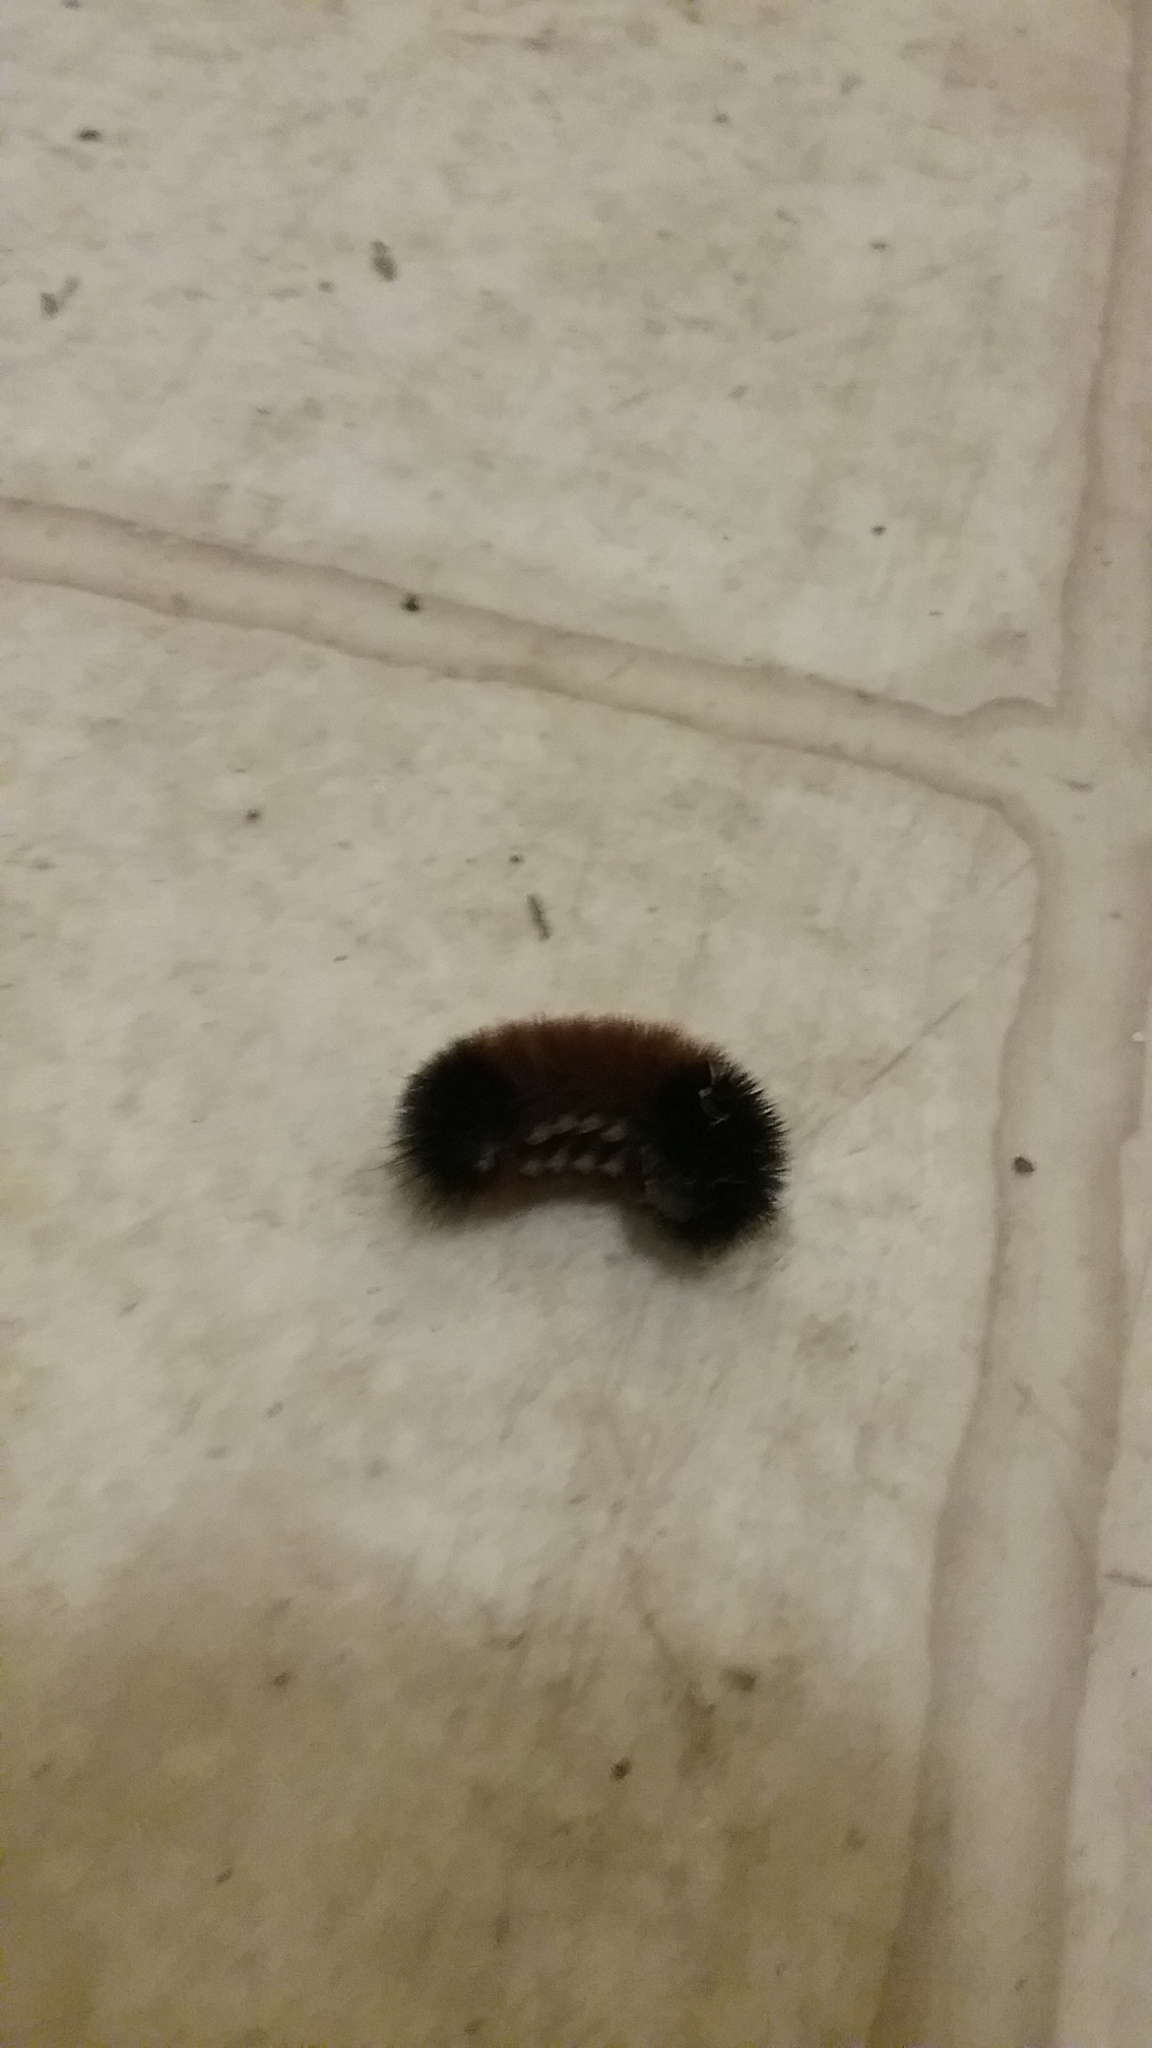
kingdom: Animalia
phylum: Arthropoda
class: Insecta
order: Lepidoptera
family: Erebidae
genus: Pyrrharctia
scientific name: Pyrrharctia isabella
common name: Isabella tiger moth
